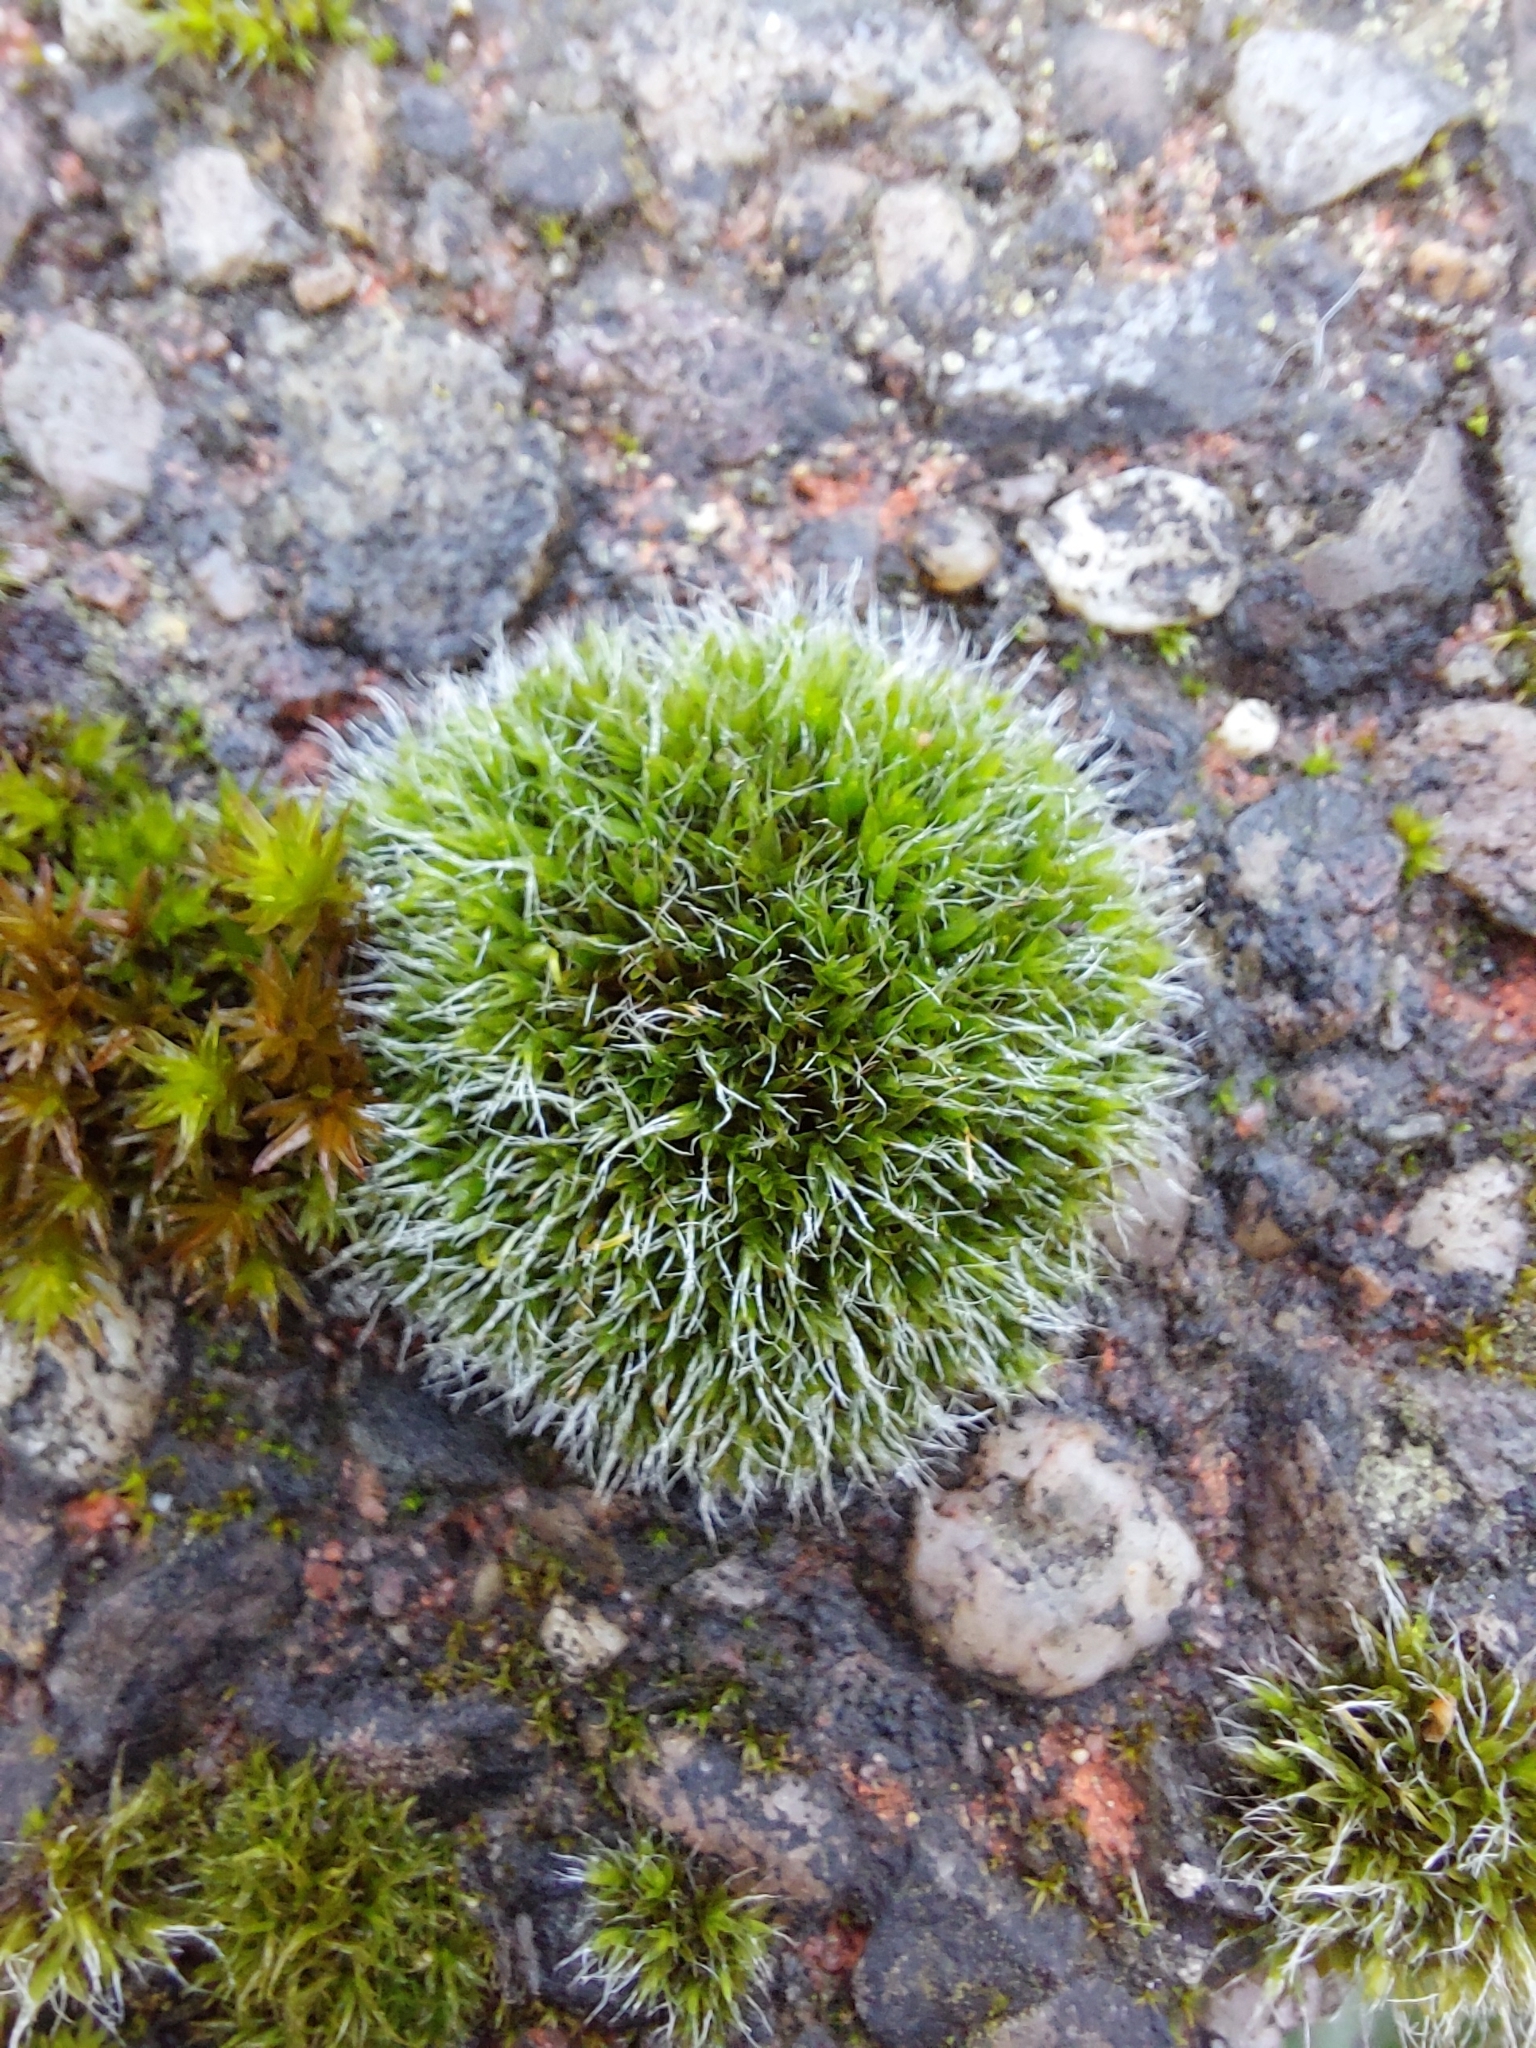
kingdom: Plantae
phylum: Bryophyta
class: Bryopsida
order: Grimmiales
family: Grimmiaceae
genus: Grimmia
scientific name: Grimmia pulvinata
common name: Grey-cushioned grimmia
